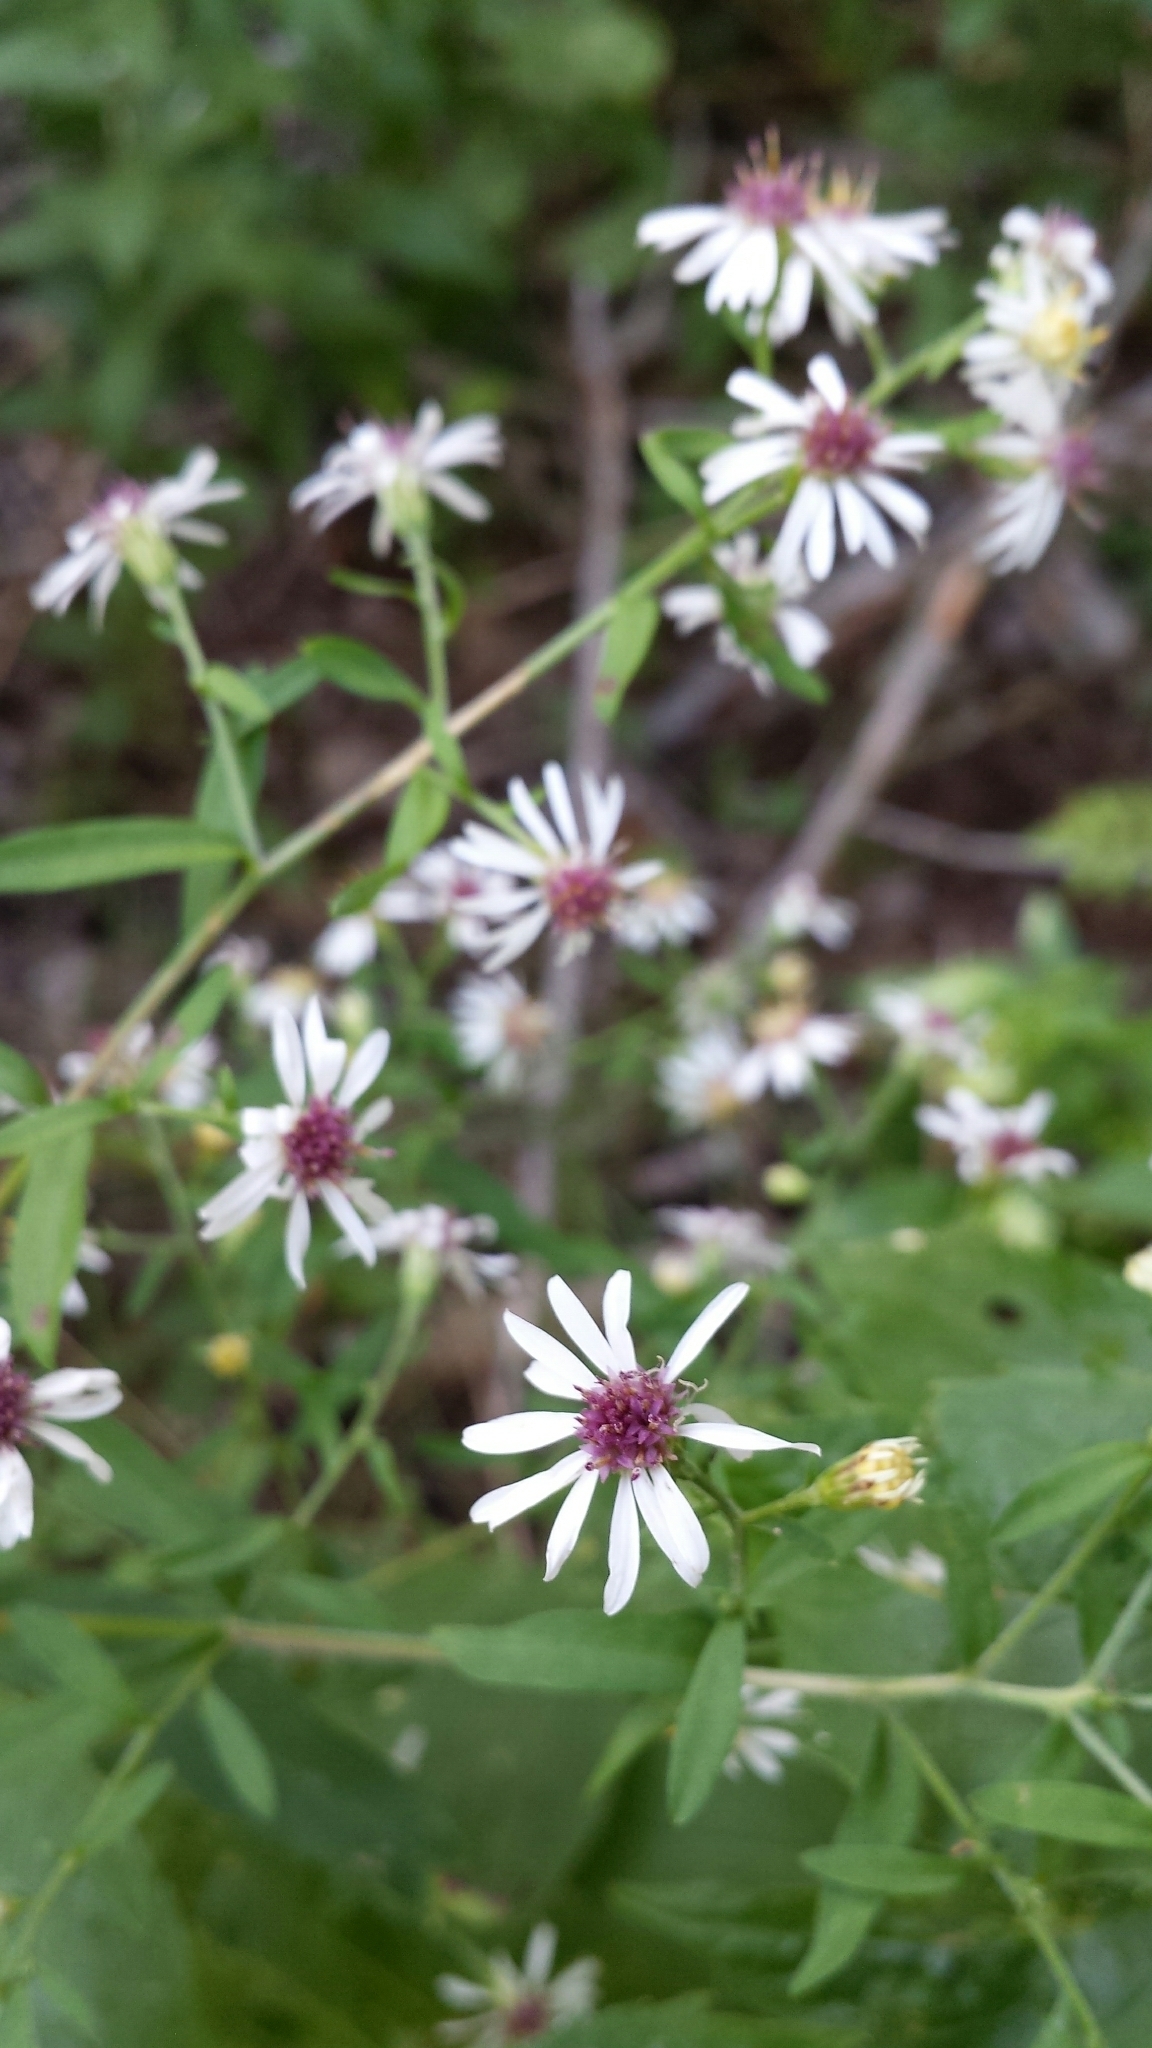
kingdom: Plantae
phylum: Tracheophyta
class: Magnoliopsida
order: Asterales
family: Asteraceae
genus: Symphyotrichum
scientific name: Symphyotrichum lateriflorum
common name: Calico aster
